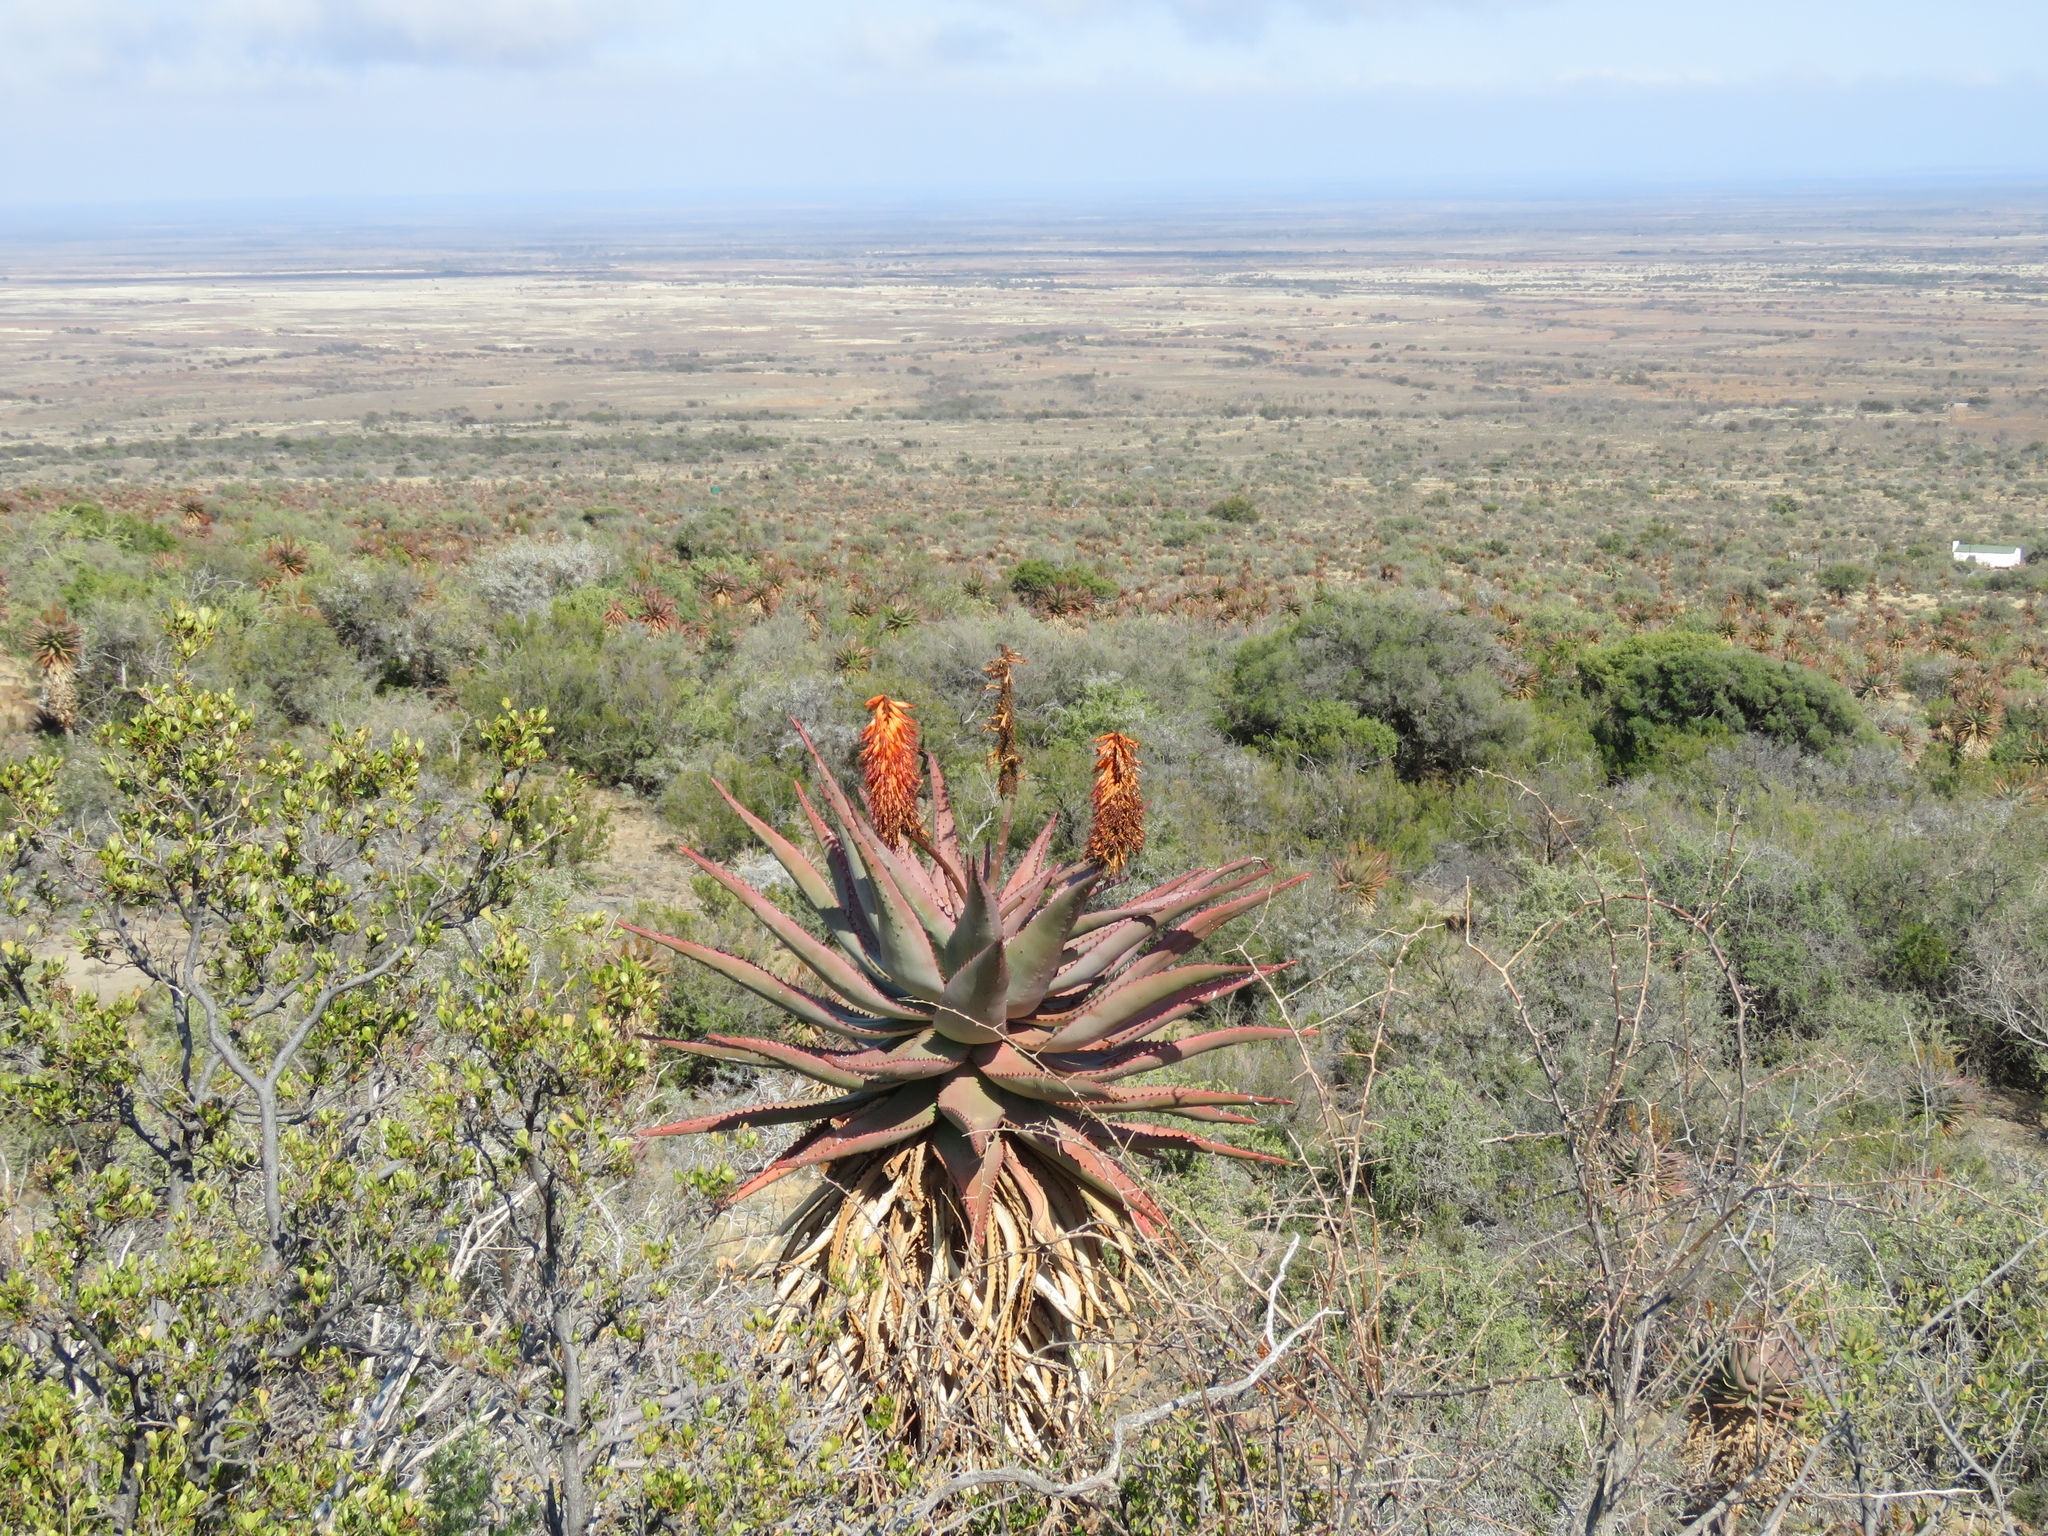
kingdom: Plantae
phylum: Tracheophyta
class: Liliopsida
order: Asparagales
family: Asphodelaceae
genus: Aloe
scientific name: Aloe ferox
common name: Bitter aloe
